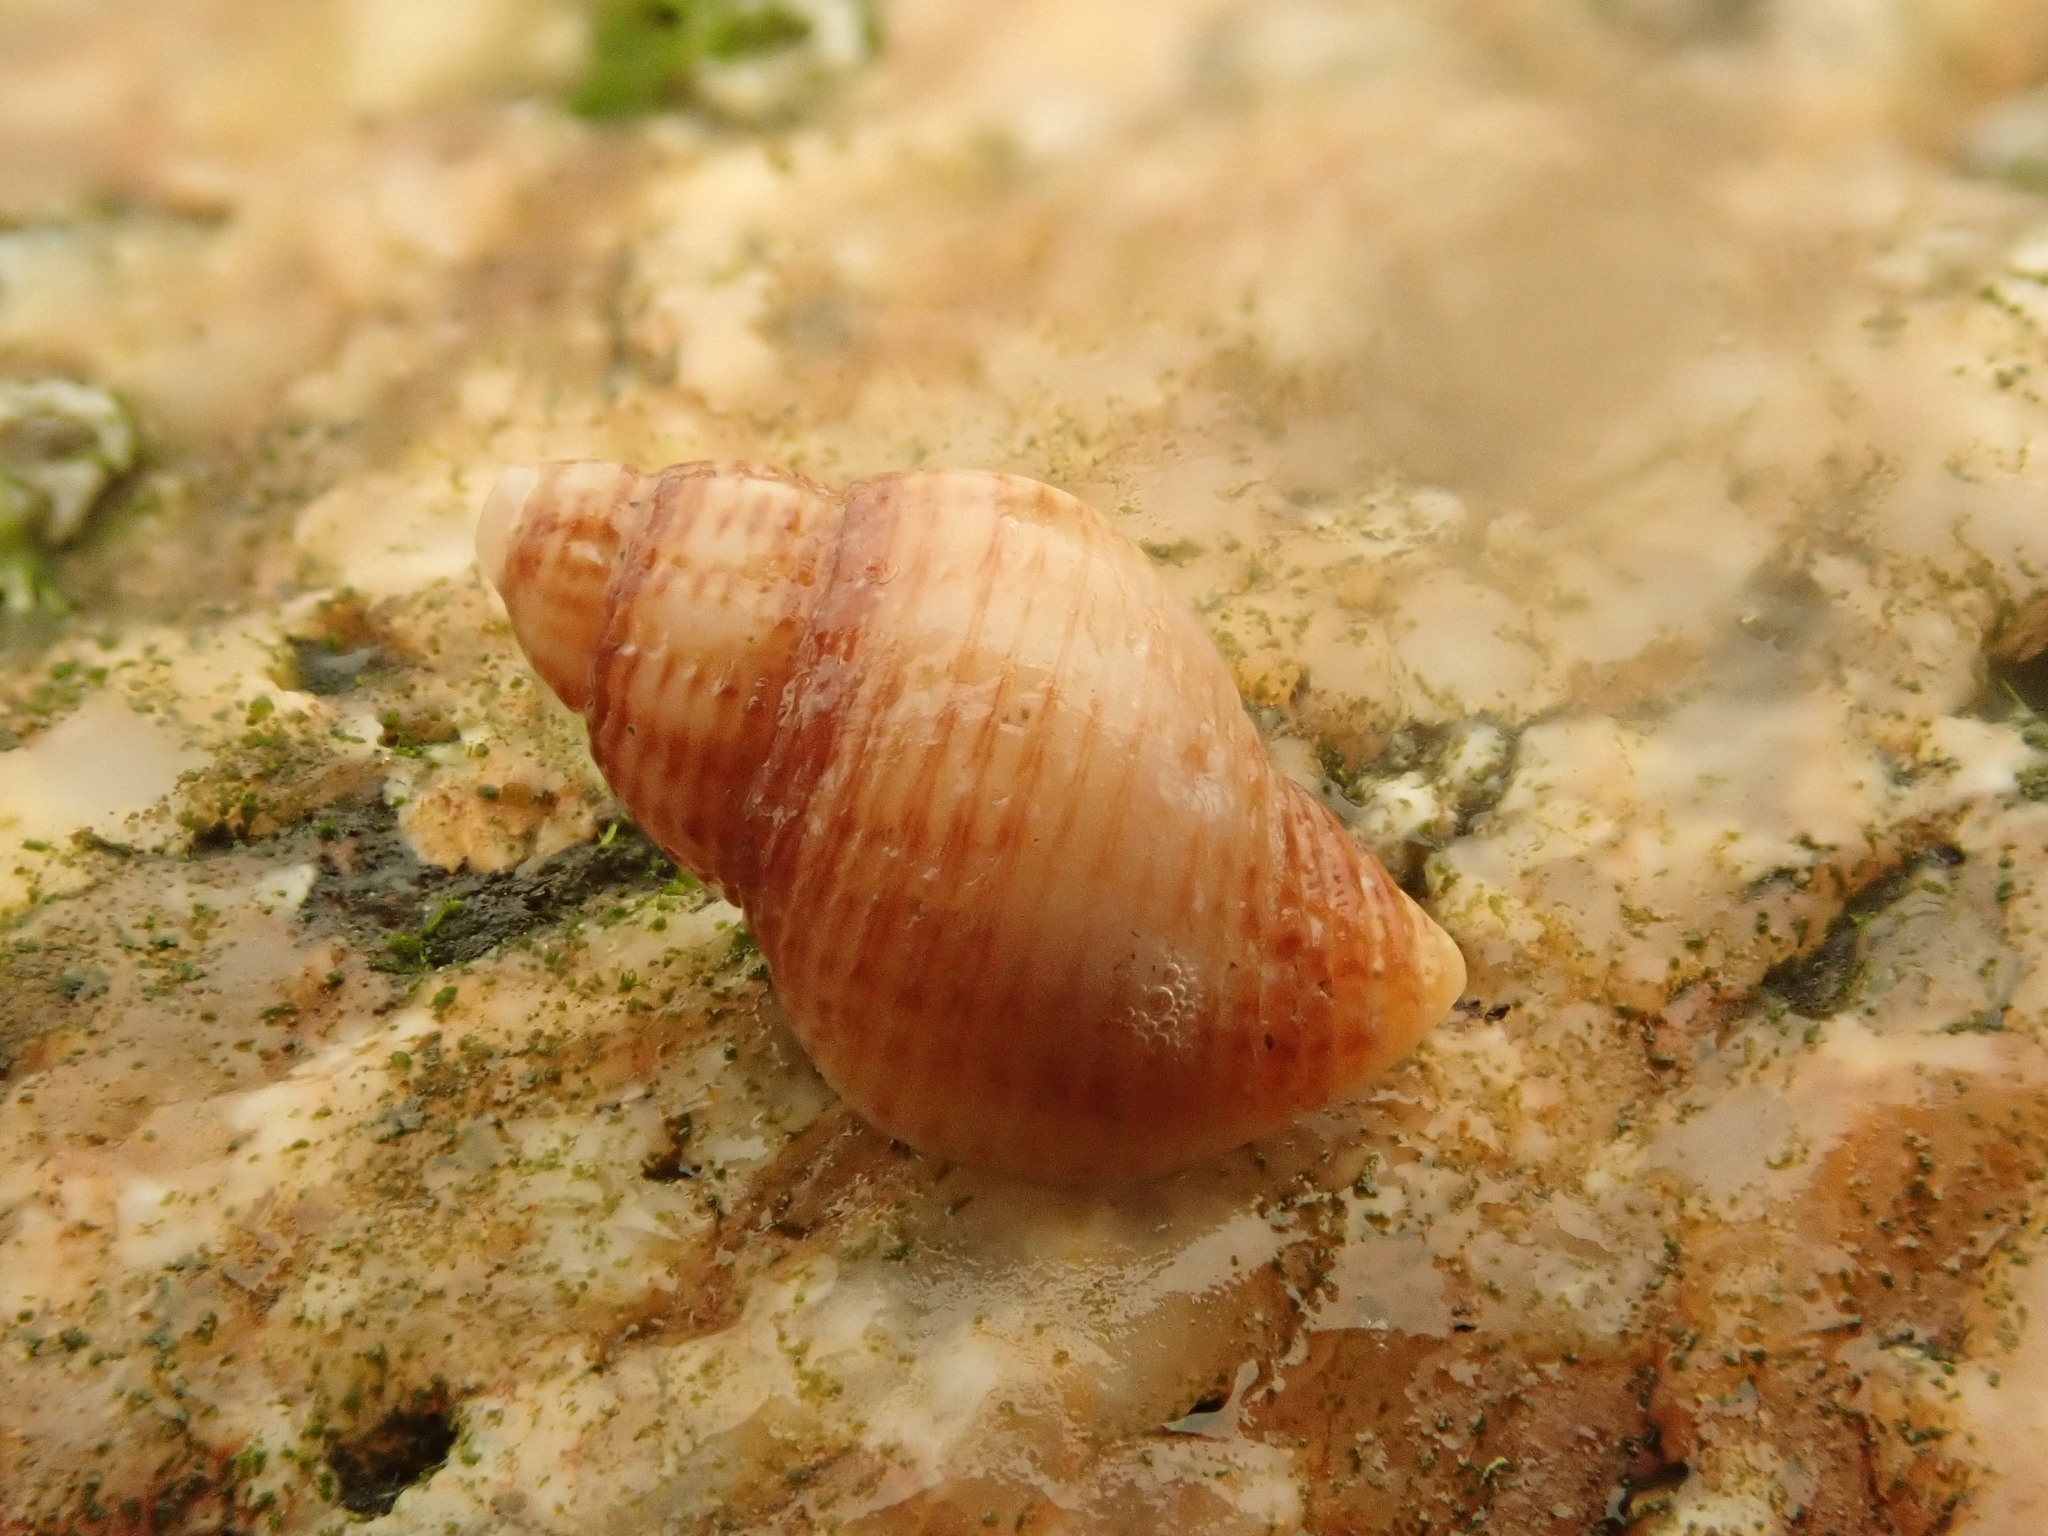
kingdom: Animalia
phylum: Mollusca
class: Gastropoda
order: Neogastropoda
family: Muricidae
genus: Paciocinebrina
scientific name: Paciocinebrina lurida
